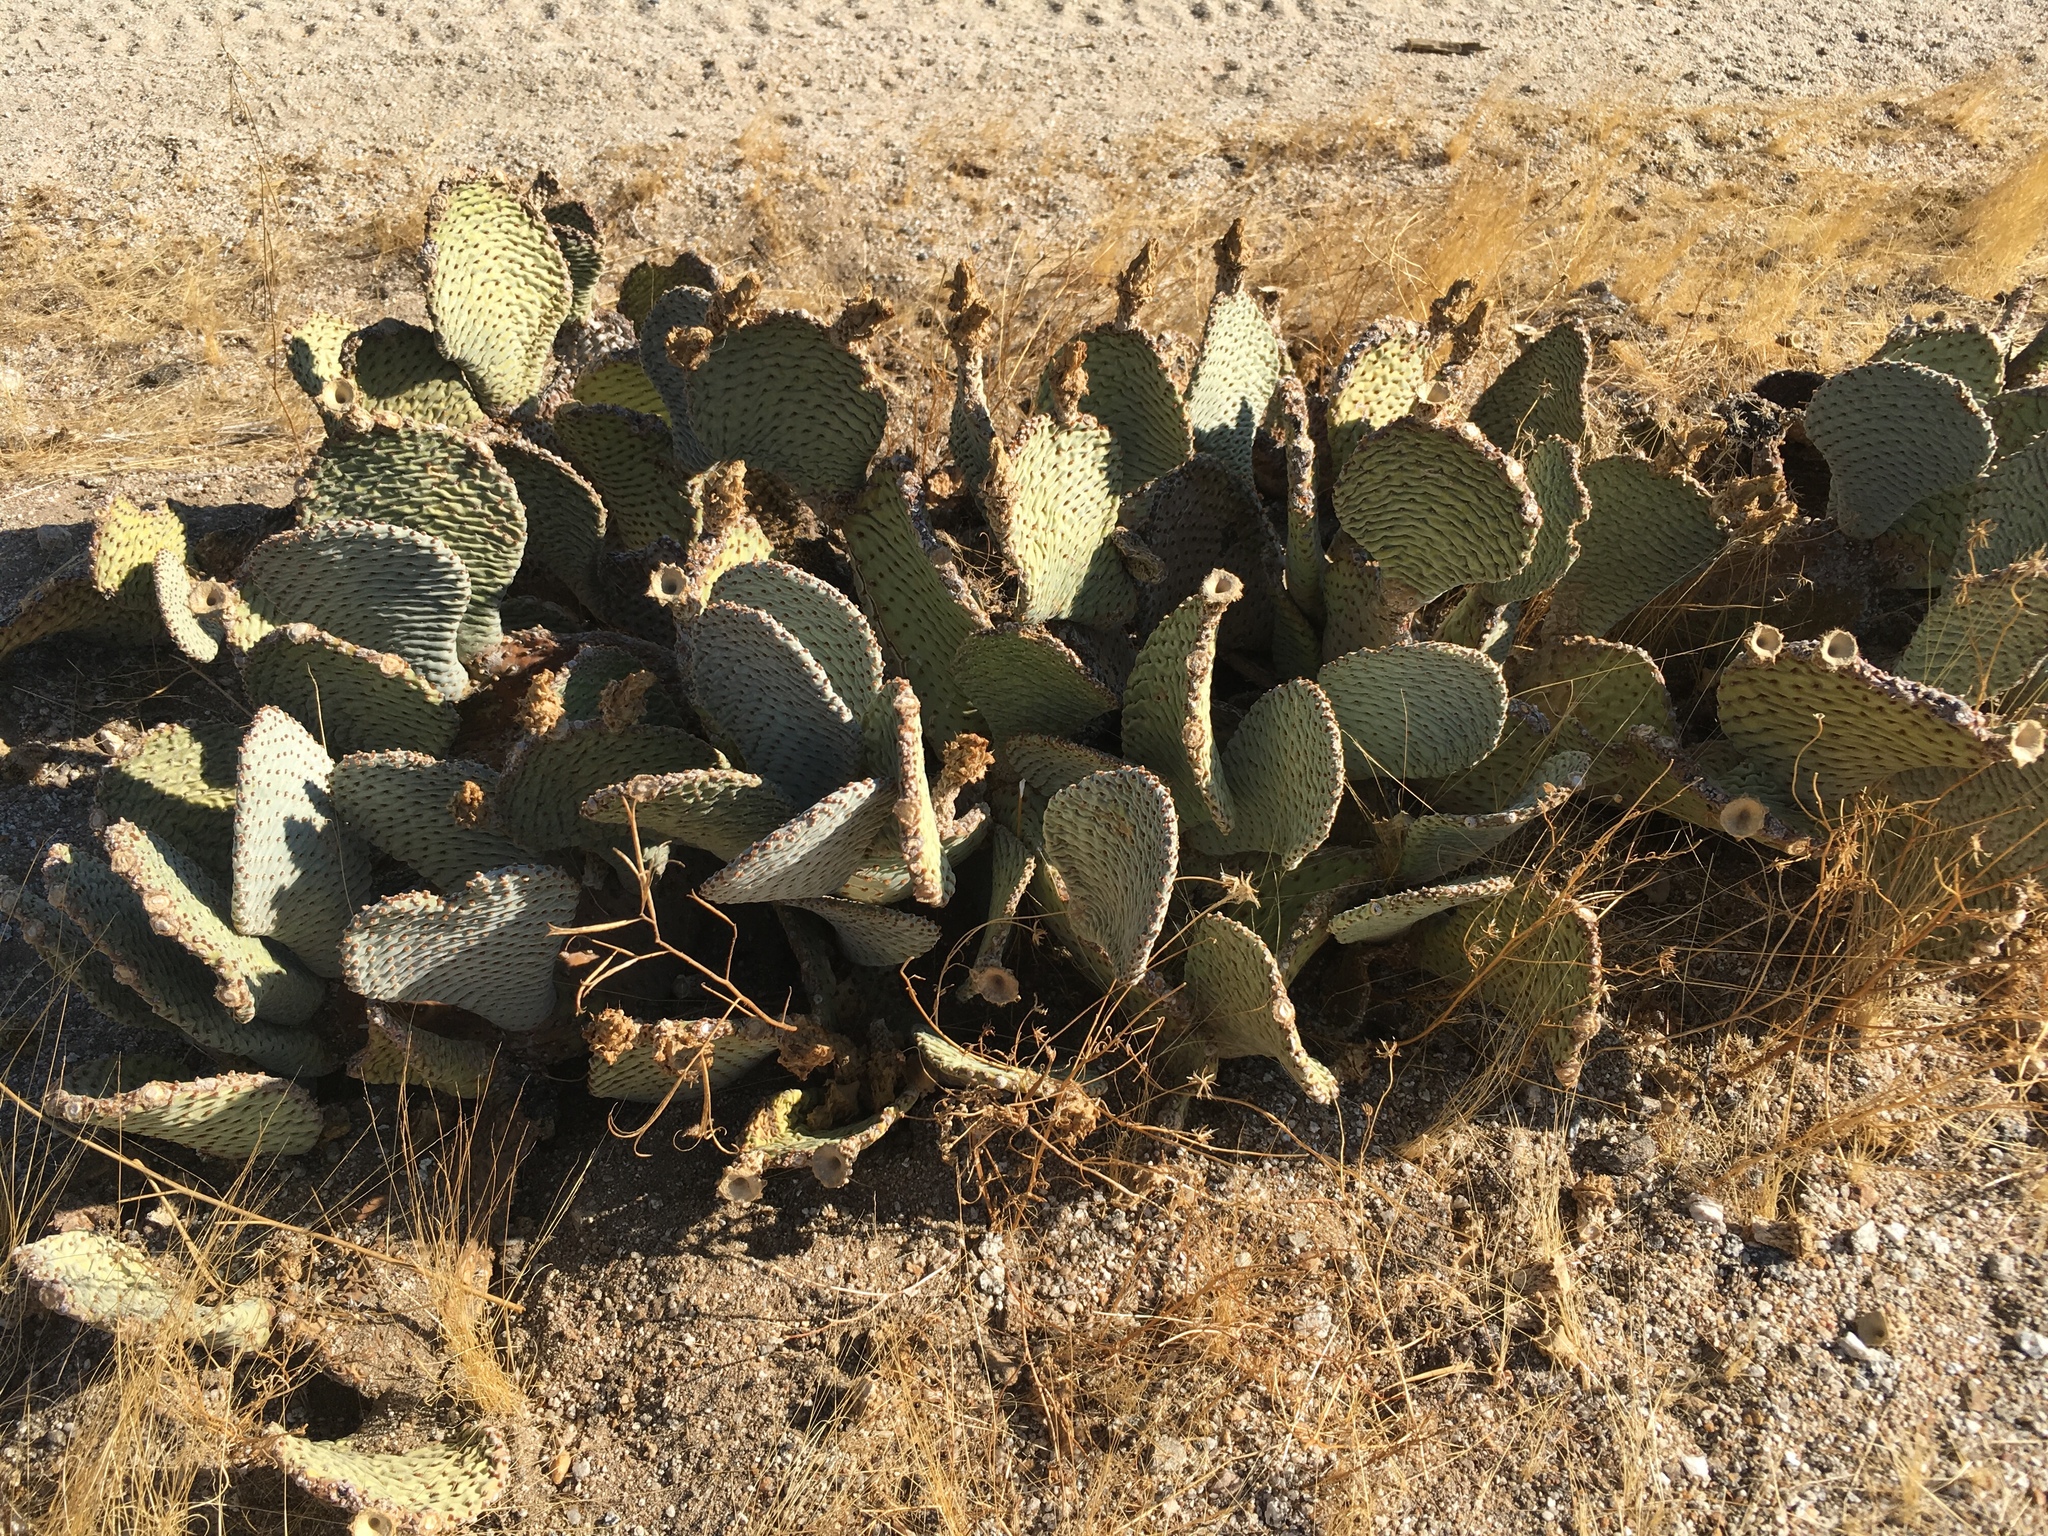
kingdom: Plantae
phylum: Tracheophyta
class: Magnoliopsida
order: Caryophyllales
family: Cactaceae
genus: Opuntia
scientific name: Opuntia basilaris
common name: Beavertail prickly-pear
